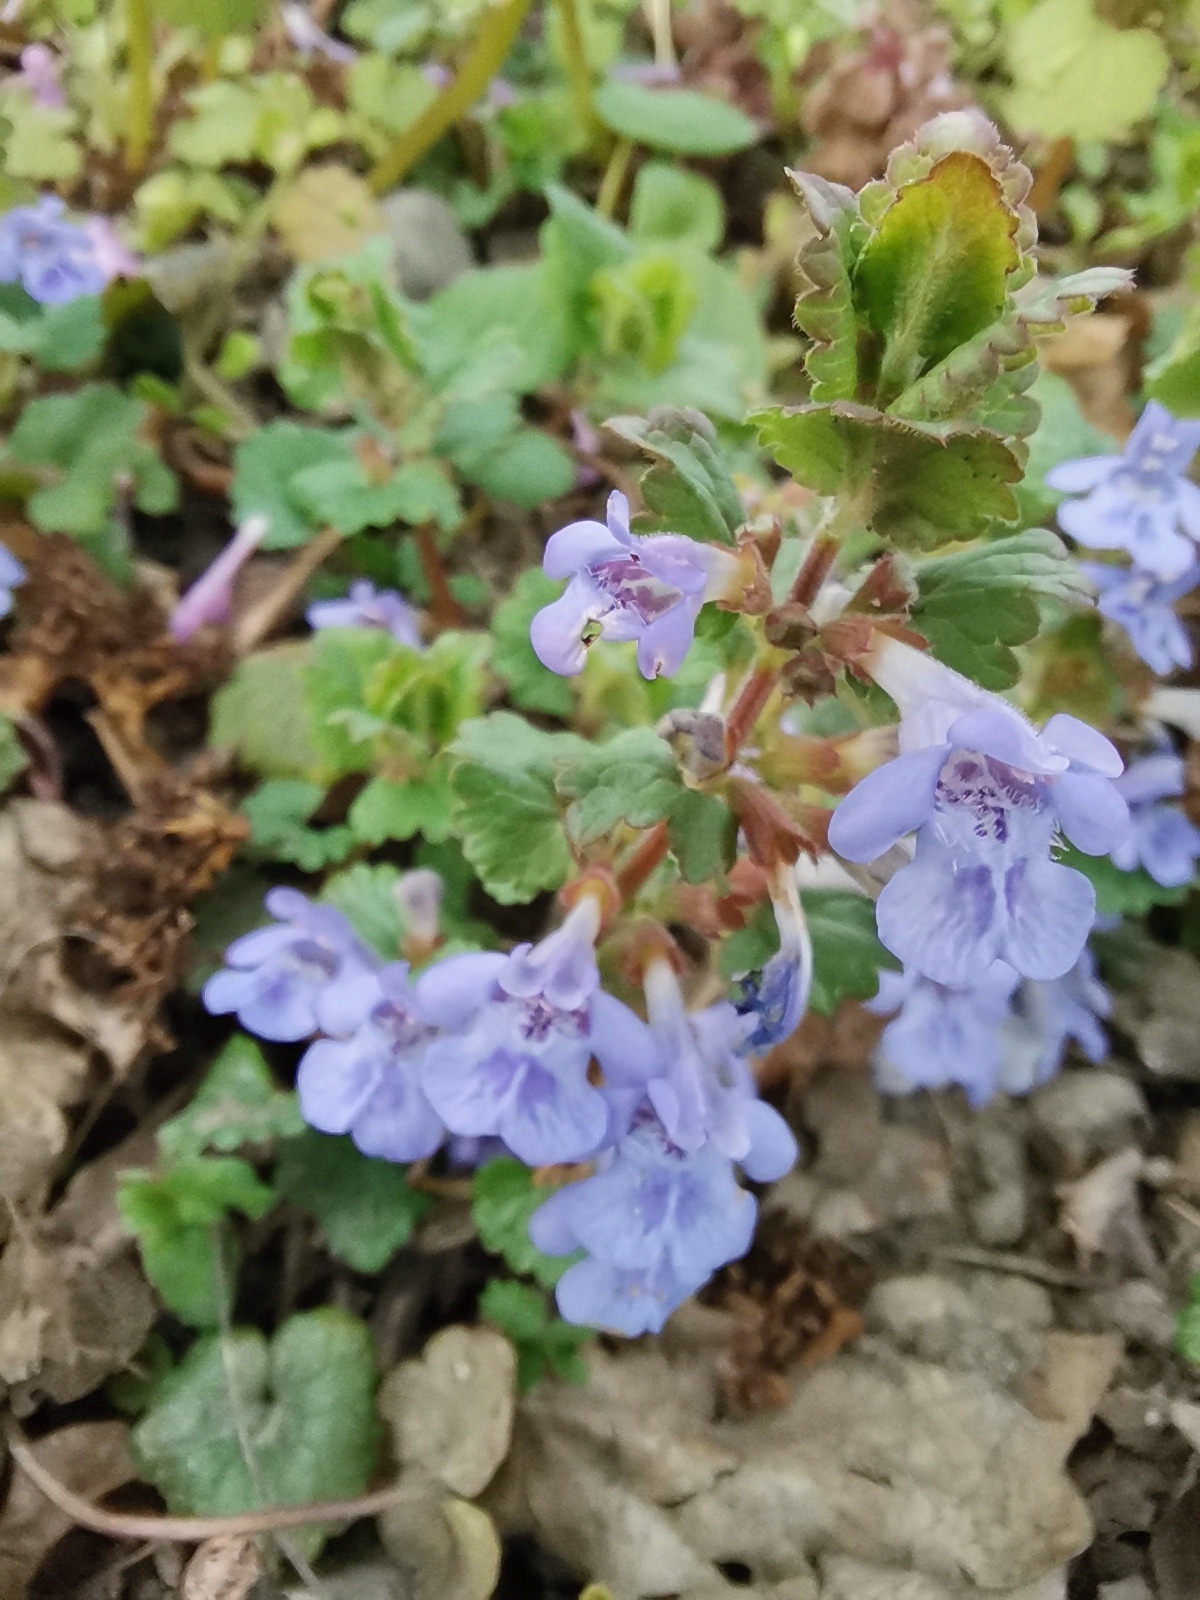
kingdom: Plantae
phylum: Tracheophyta
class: Magnoliopsida
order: Lamiales
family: Lamiaceae
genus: Glechoma
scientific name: Glechoma hederacea
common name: Ground ivy
